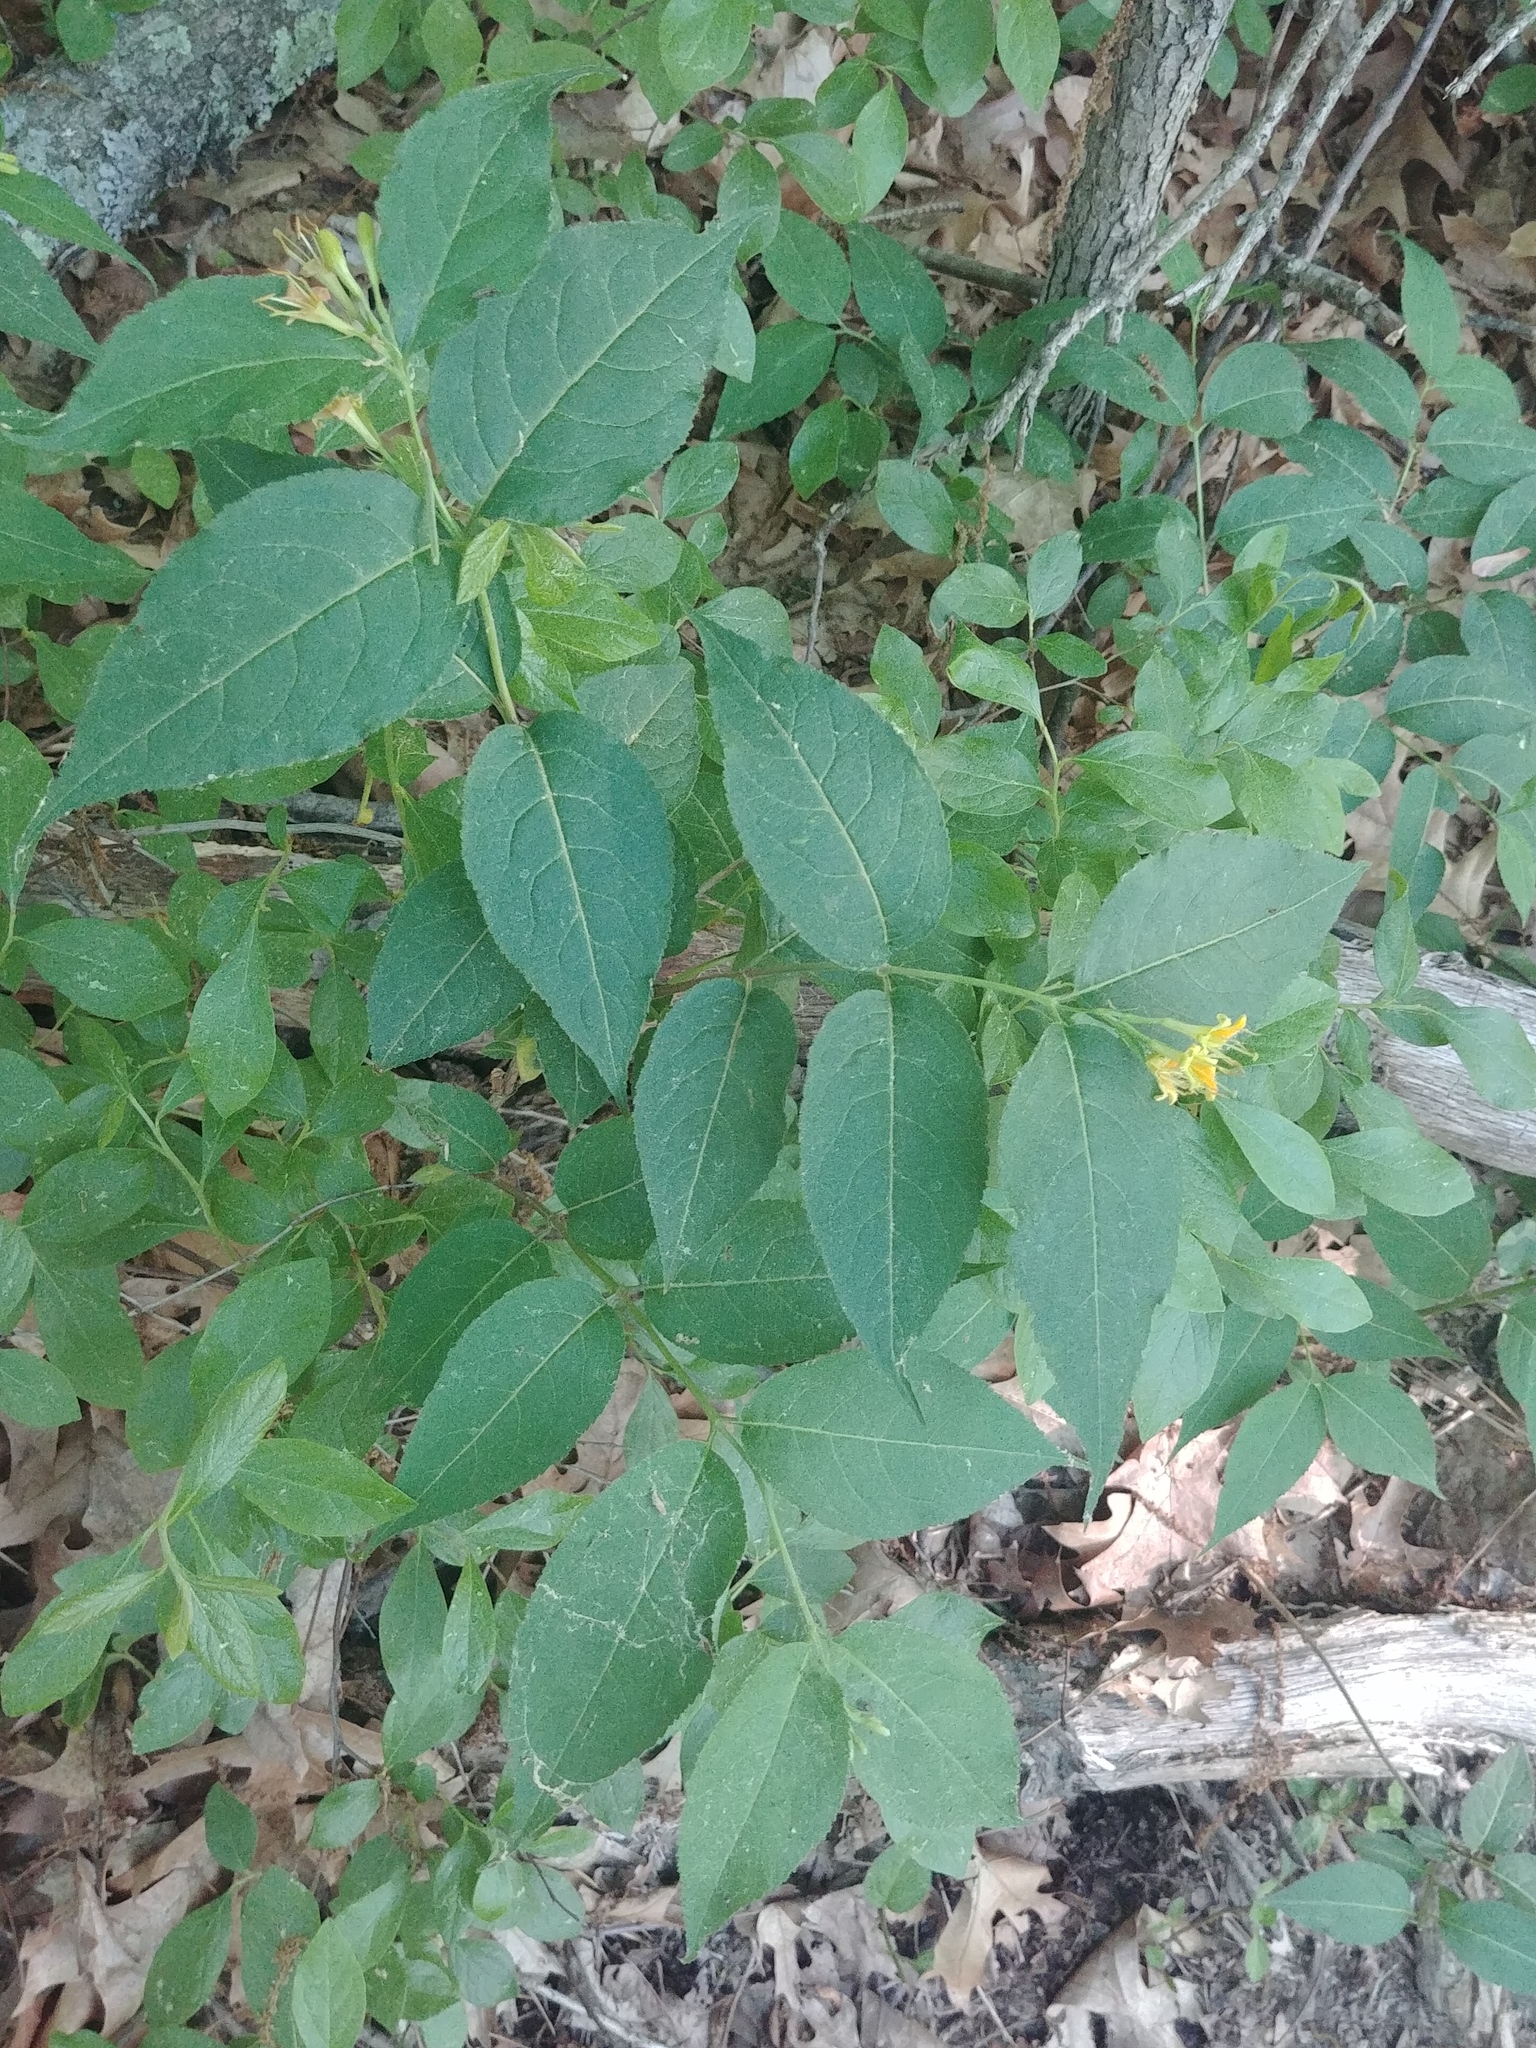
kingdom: Plantae
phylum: Tracheophyta
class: Magnoliopsida
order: Dipsacales
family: Caprifoliaceae
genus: Diervilla
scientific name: Diervilla lonicera
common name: Bush-honeysuckle
